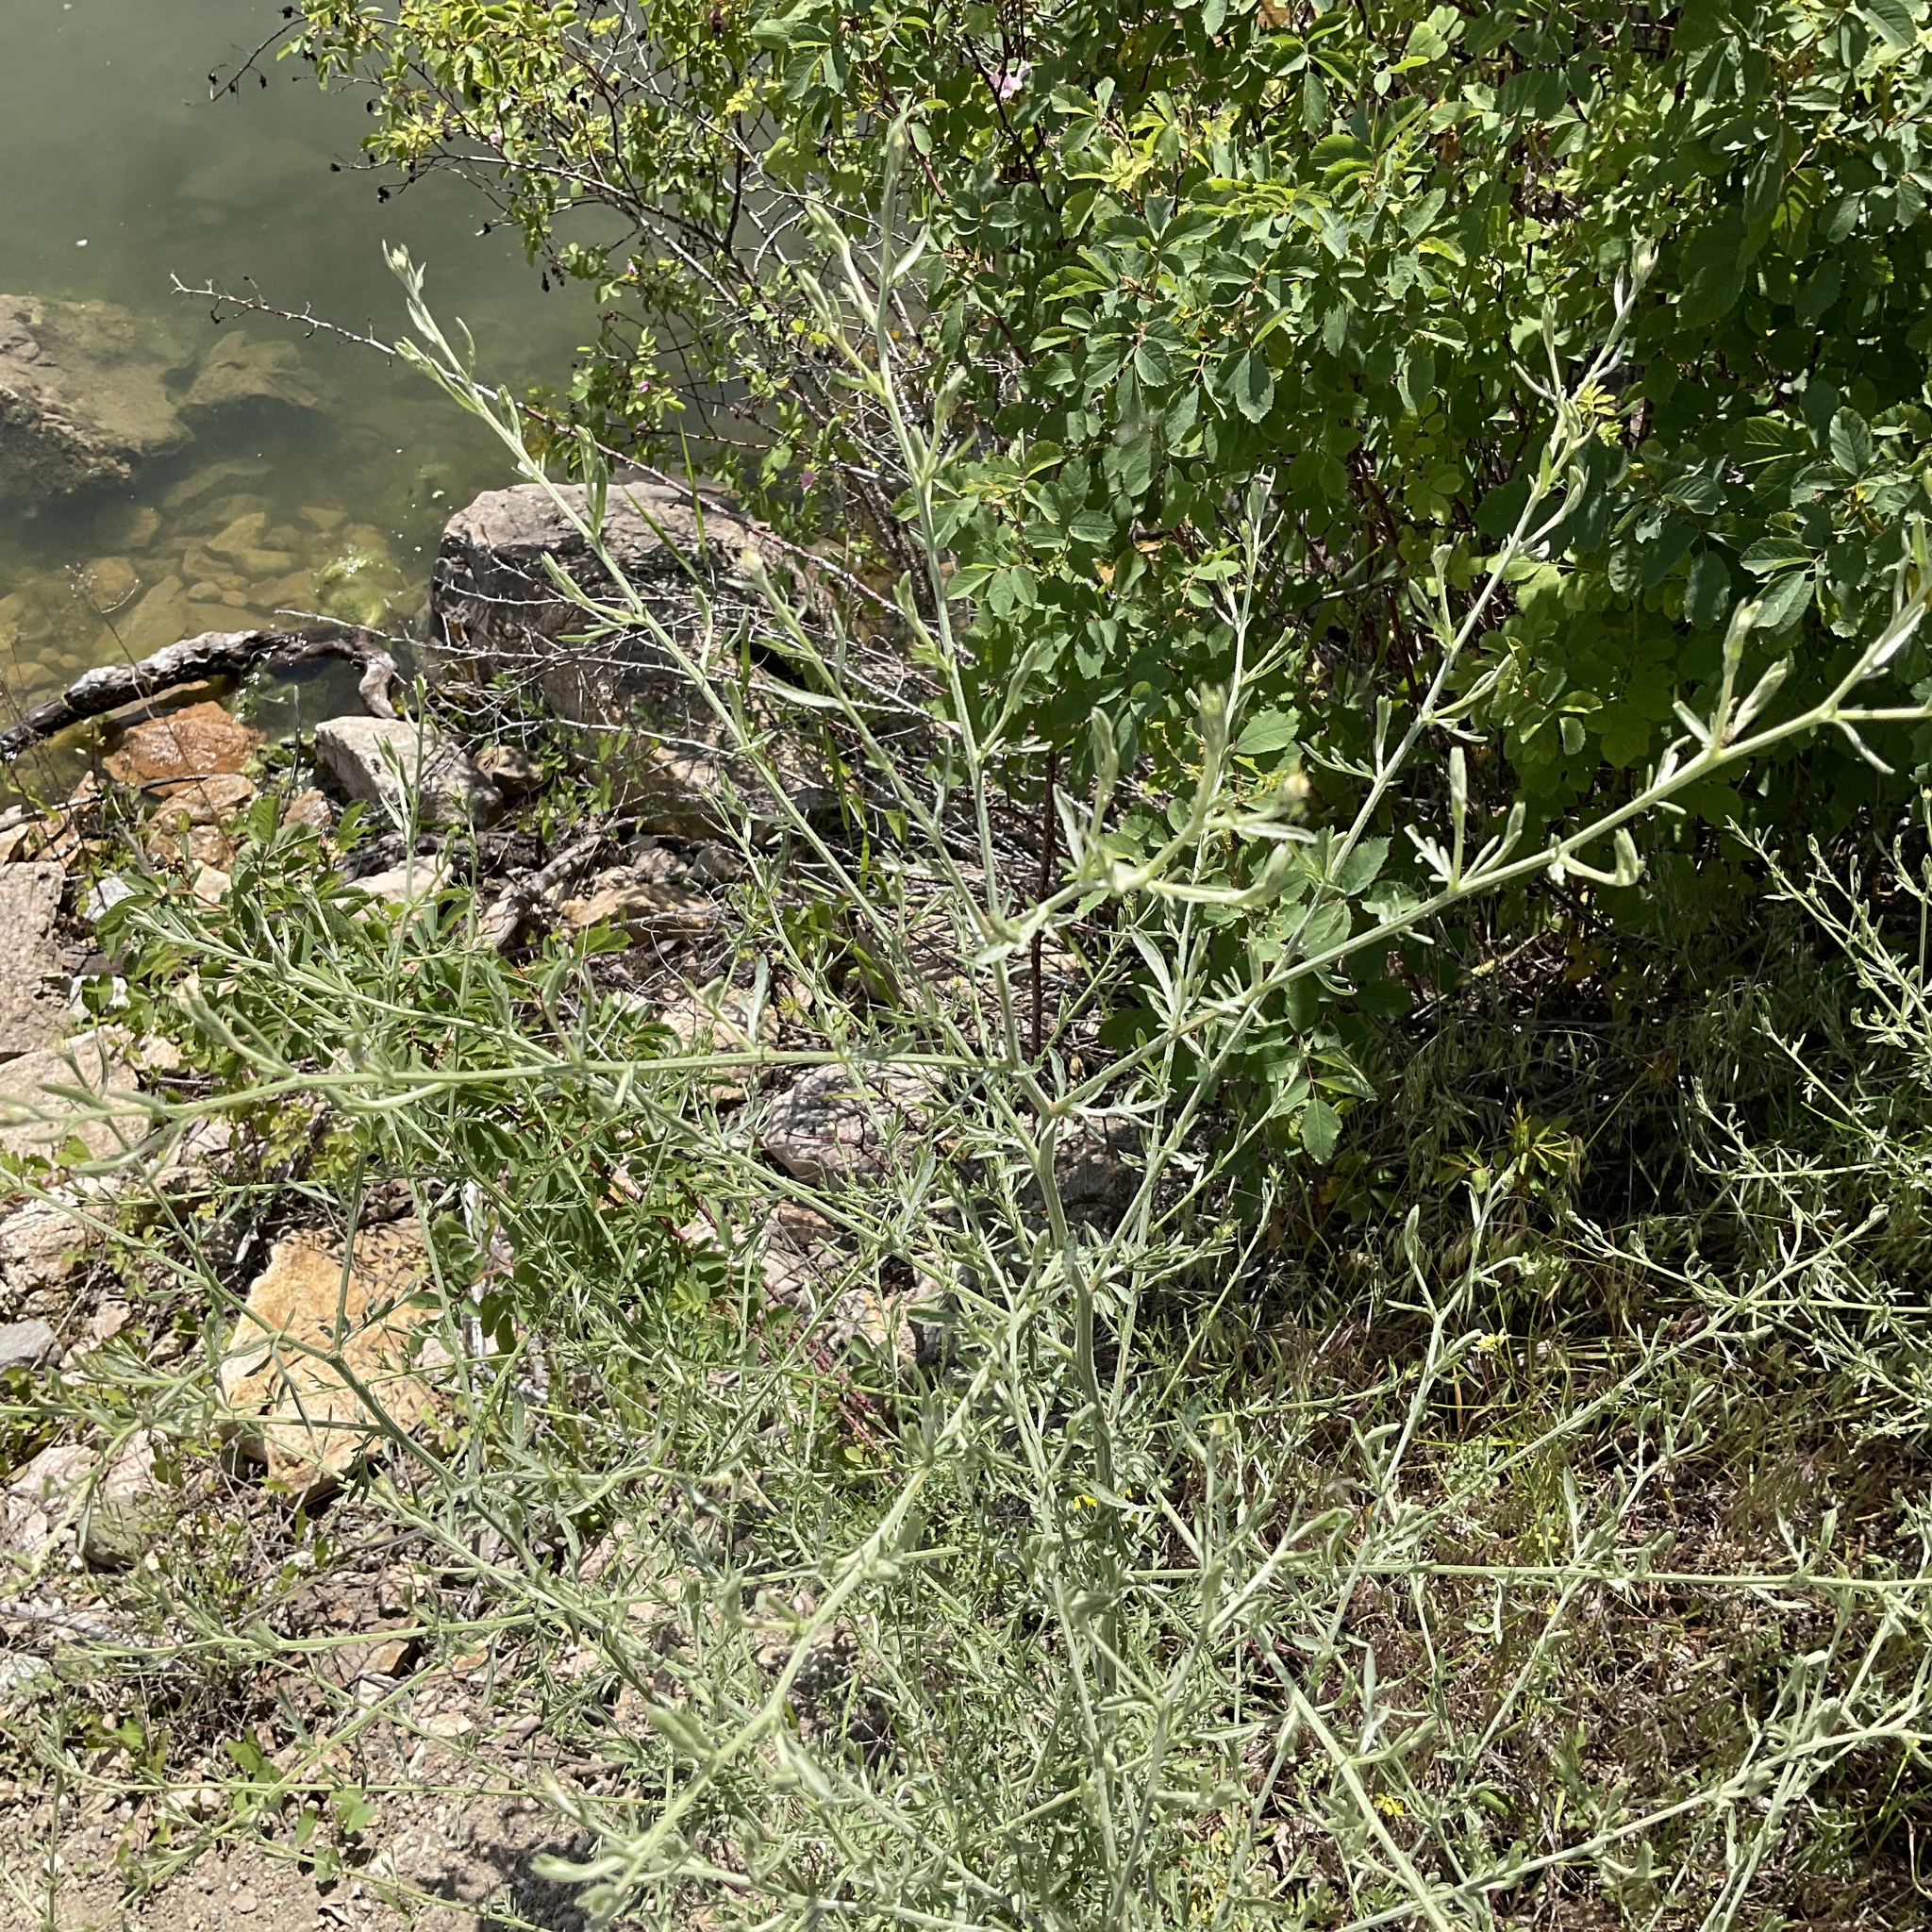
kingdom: Plantae
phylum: Tracheophyta
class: Magnoliopsida
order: Asterales
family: Asteraceae
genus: Centaurea
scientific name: Centaurea diffusa
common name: Diffuse knapweed
